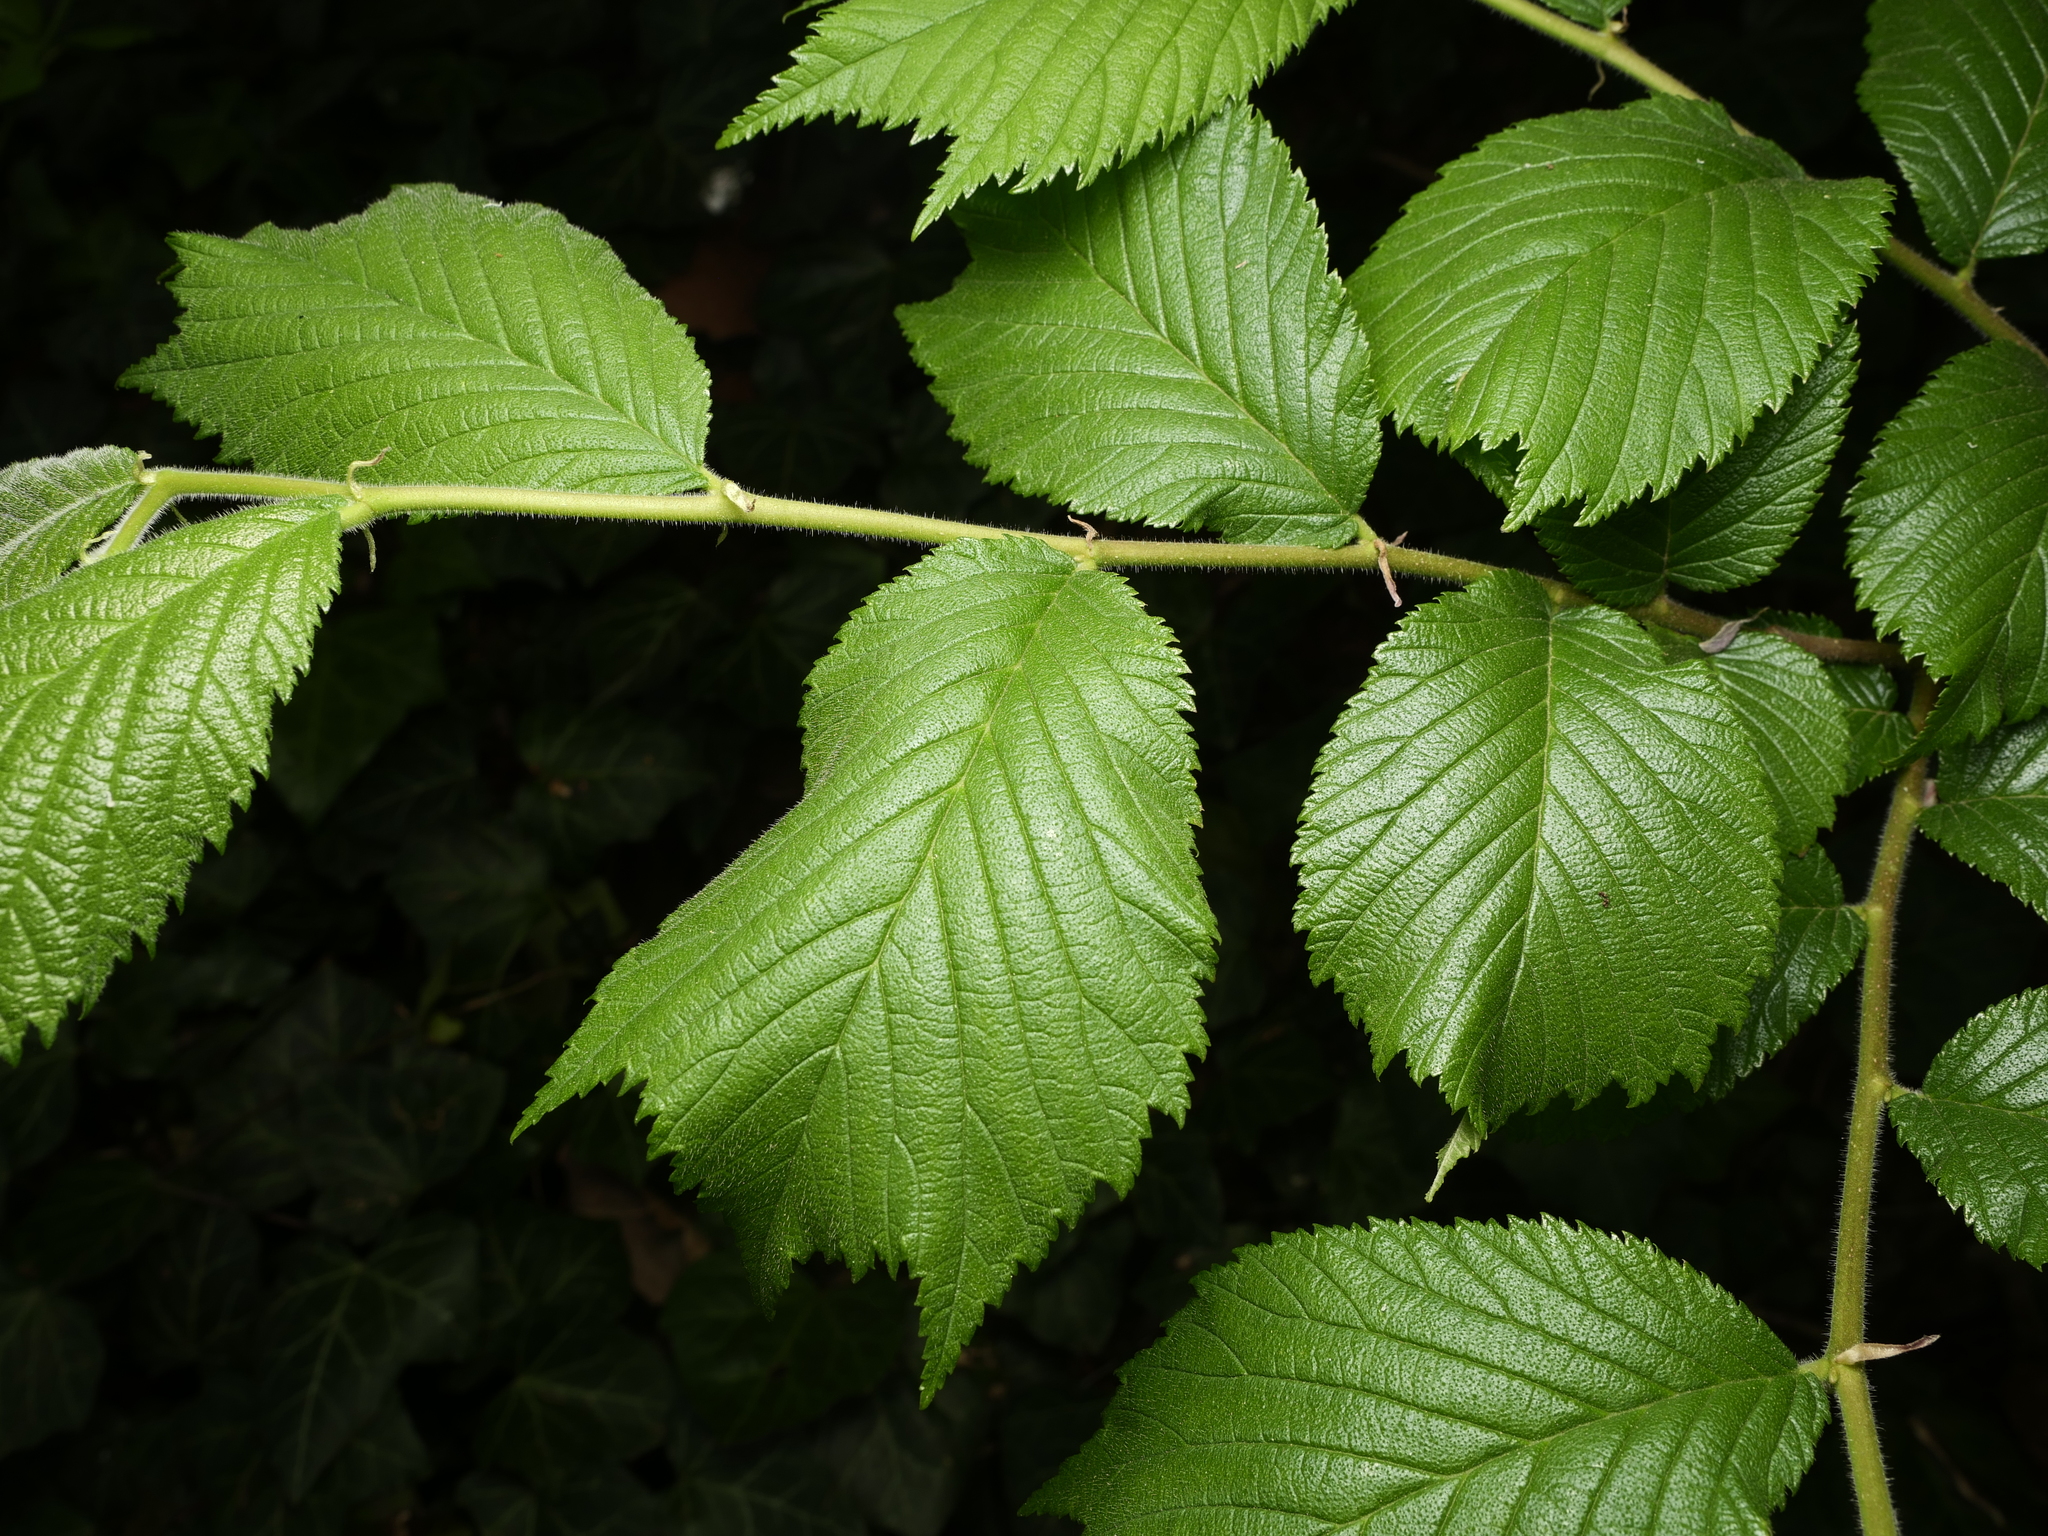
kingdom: Plantae
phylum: Tracheophyta
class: Magnoliopsida
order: Rosales
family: Ulmaceae
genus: Ulmus
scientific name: Ulmus glabra
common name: Wych elm
